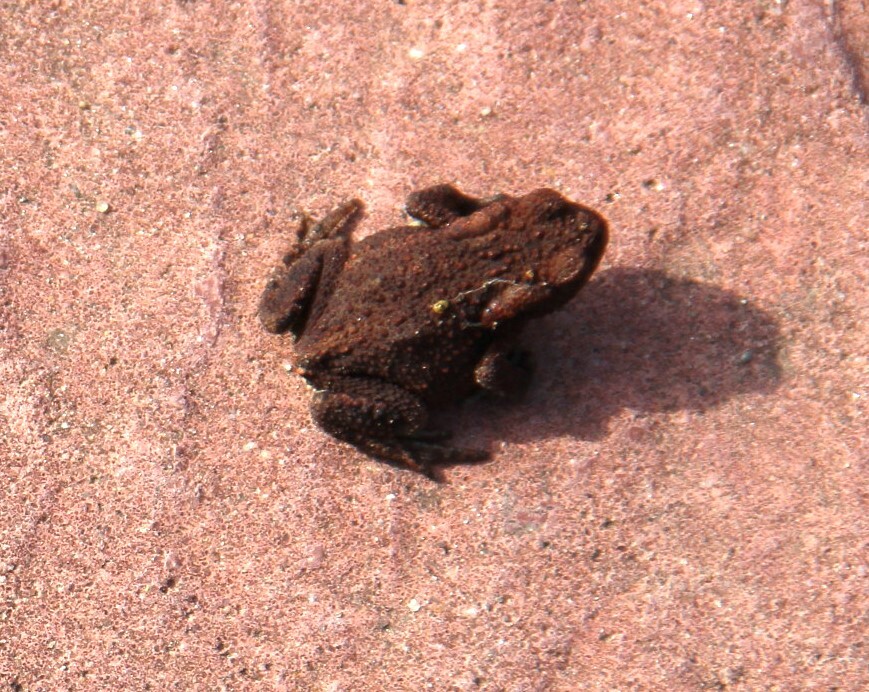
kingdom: Animalia
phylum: Chordata
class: Amphibia
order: Anura
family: Bufonidae
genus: Bufo
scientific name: Bufo bufo
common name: Common toad
